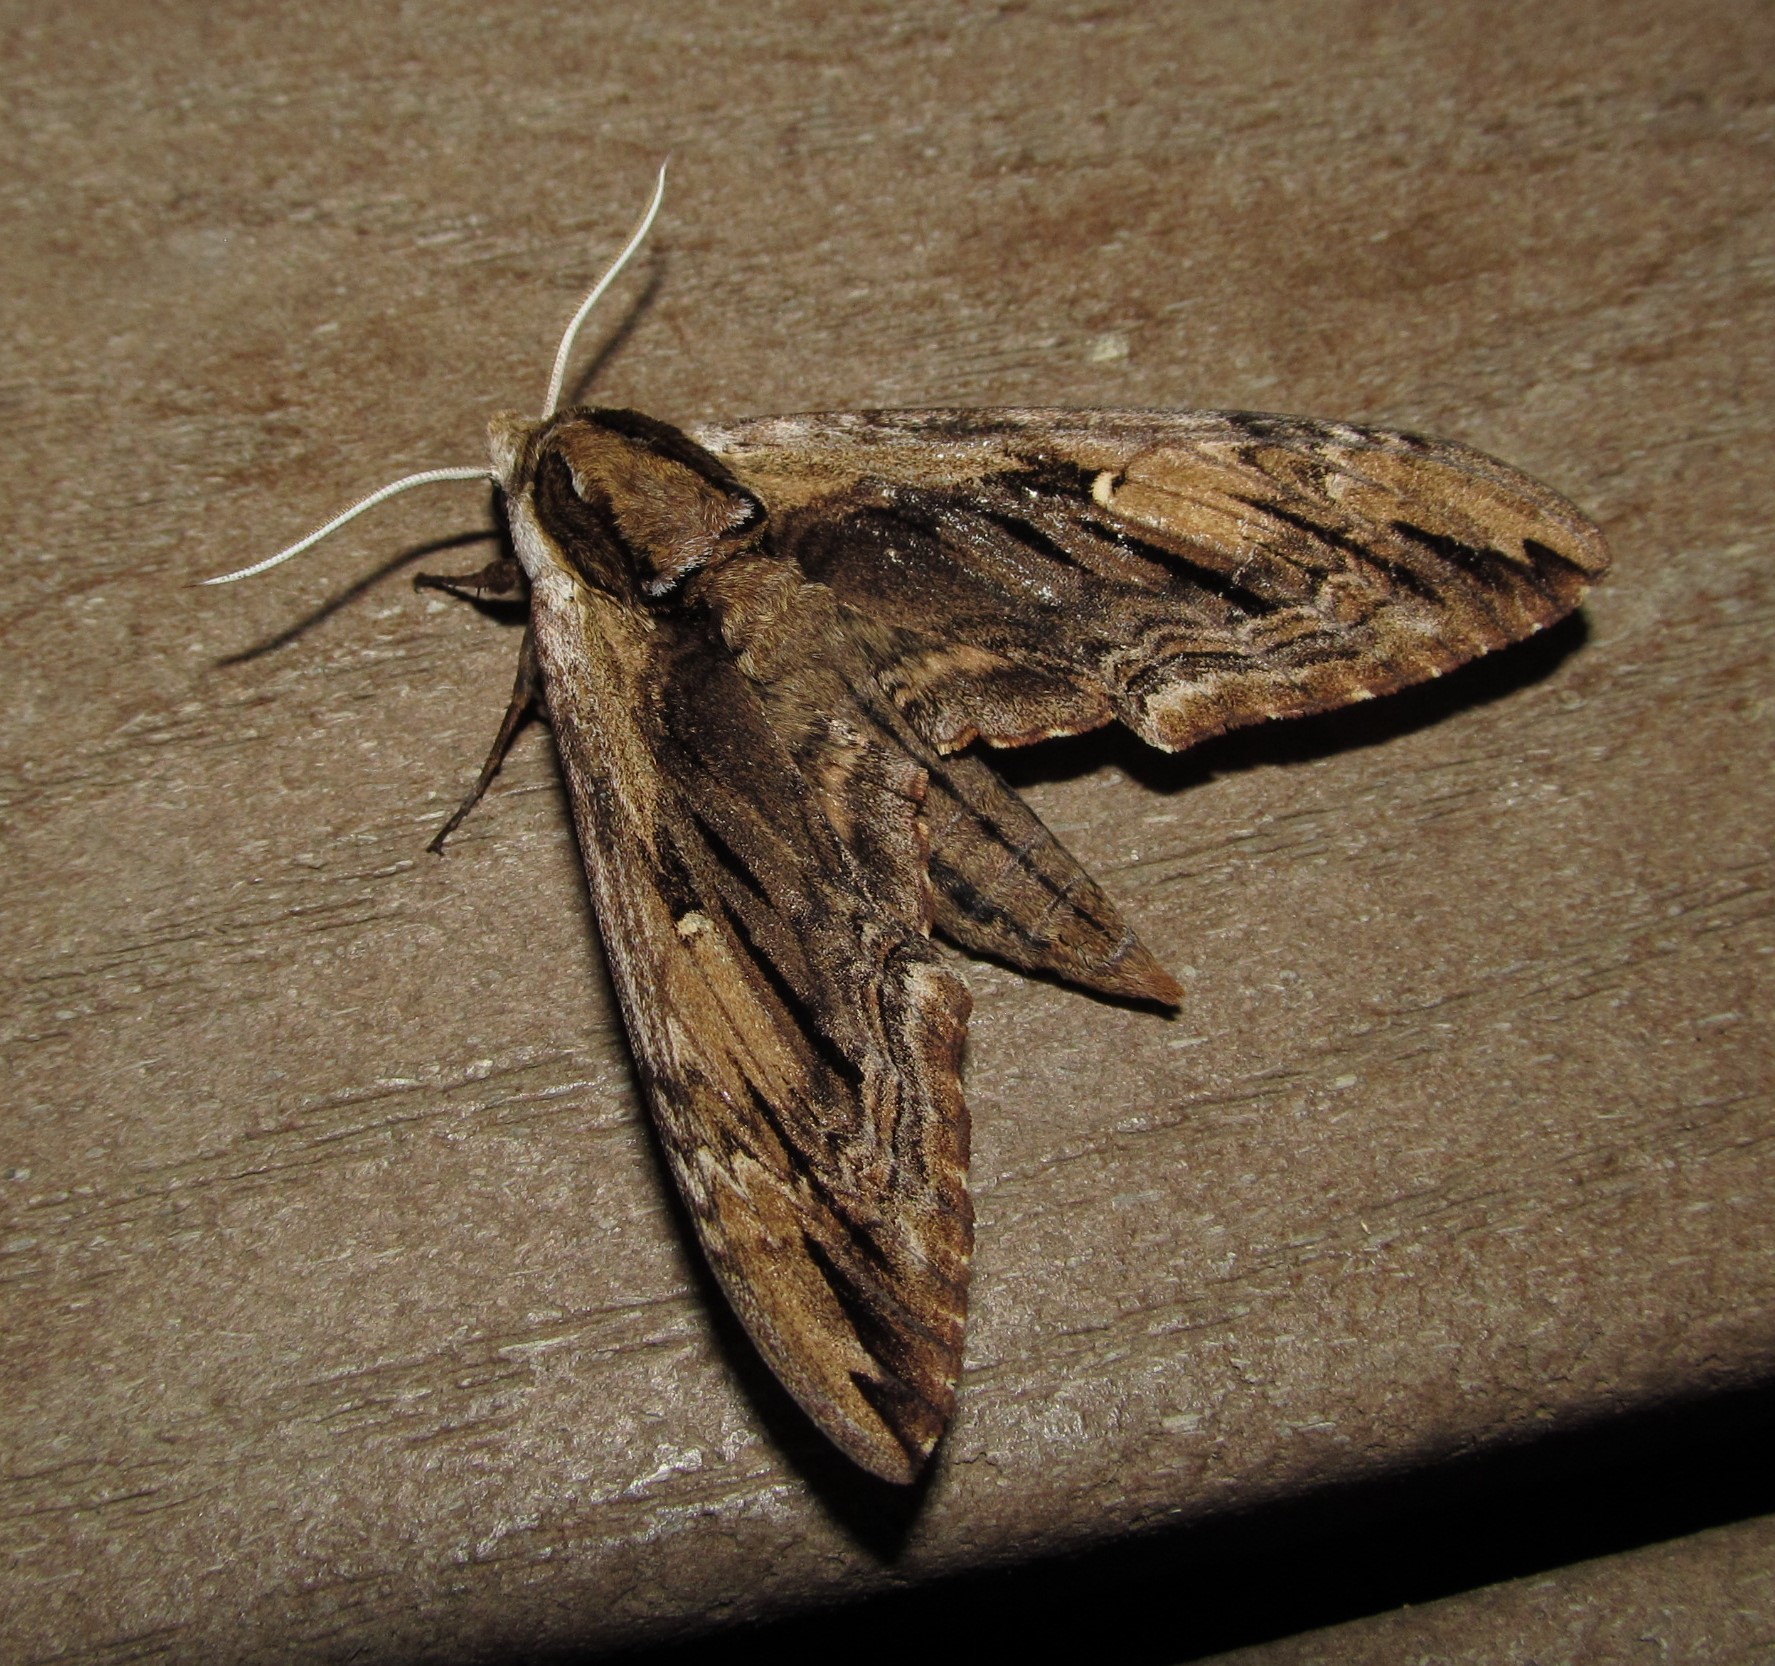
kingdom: Animalia
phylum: Arthropoda
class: Insecta
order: Lepidoptera
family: Sphingidae
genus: Ceratomia
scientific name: Ceratomia amyntor
